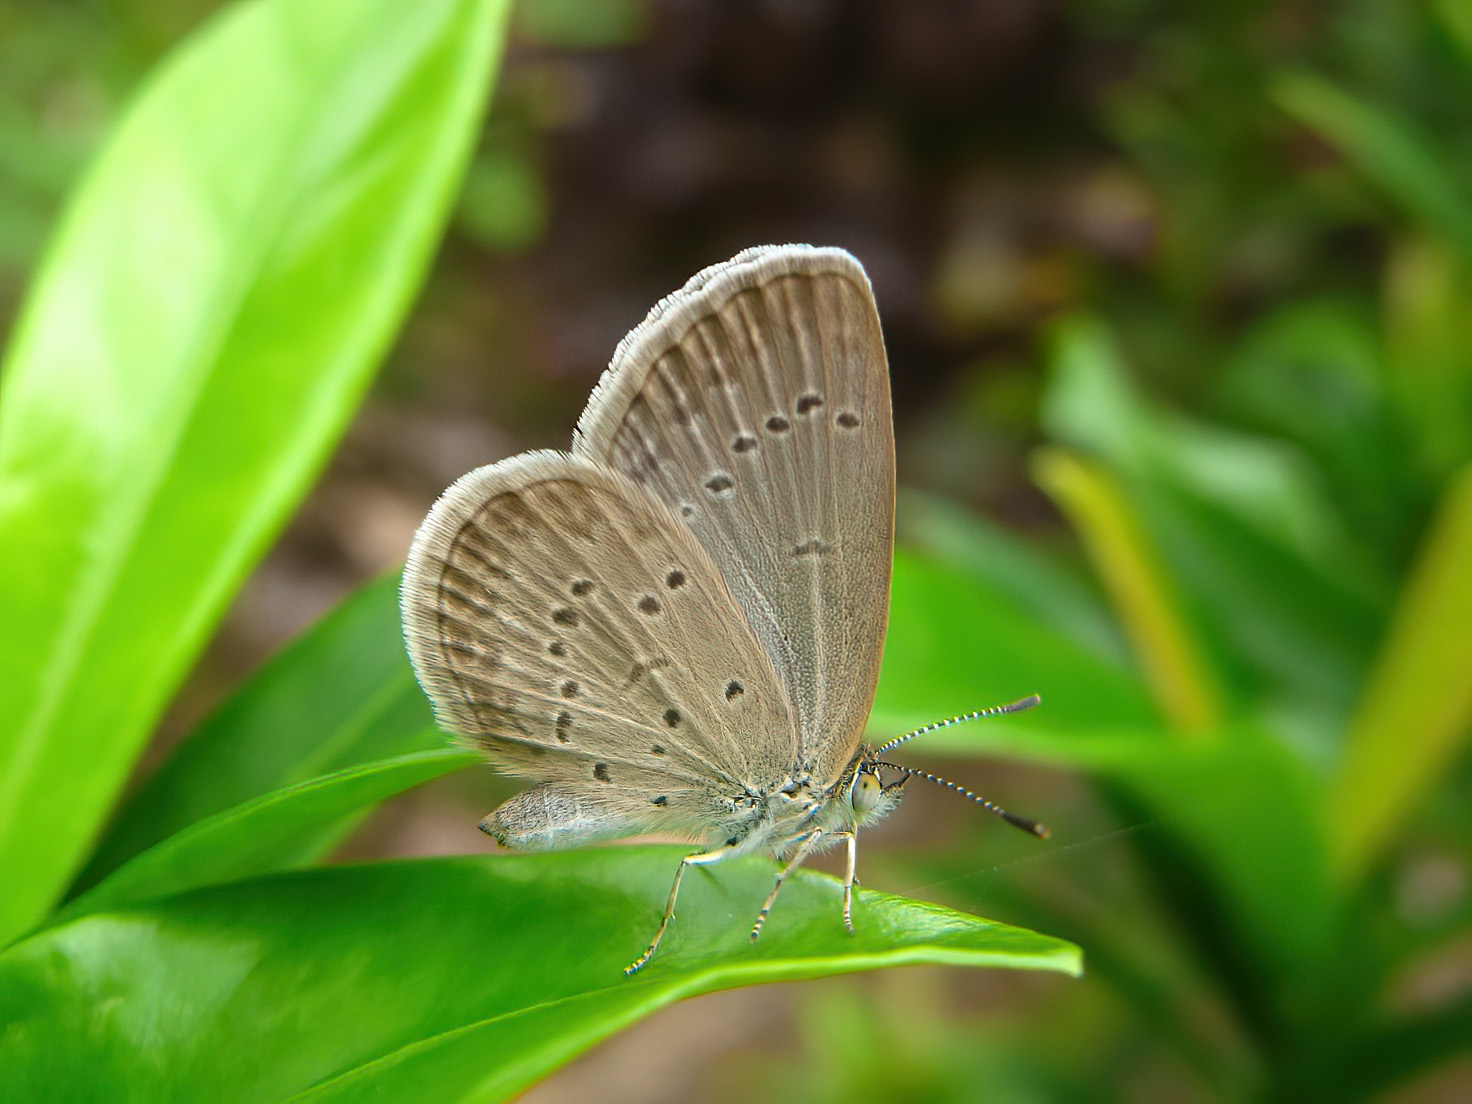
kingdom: Animalia
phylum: Arthropoda
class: Insecta
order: Lepidoptera
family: Lycaenidae
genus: Zizina
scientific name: Zizina otis
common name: Lesser grass blue
